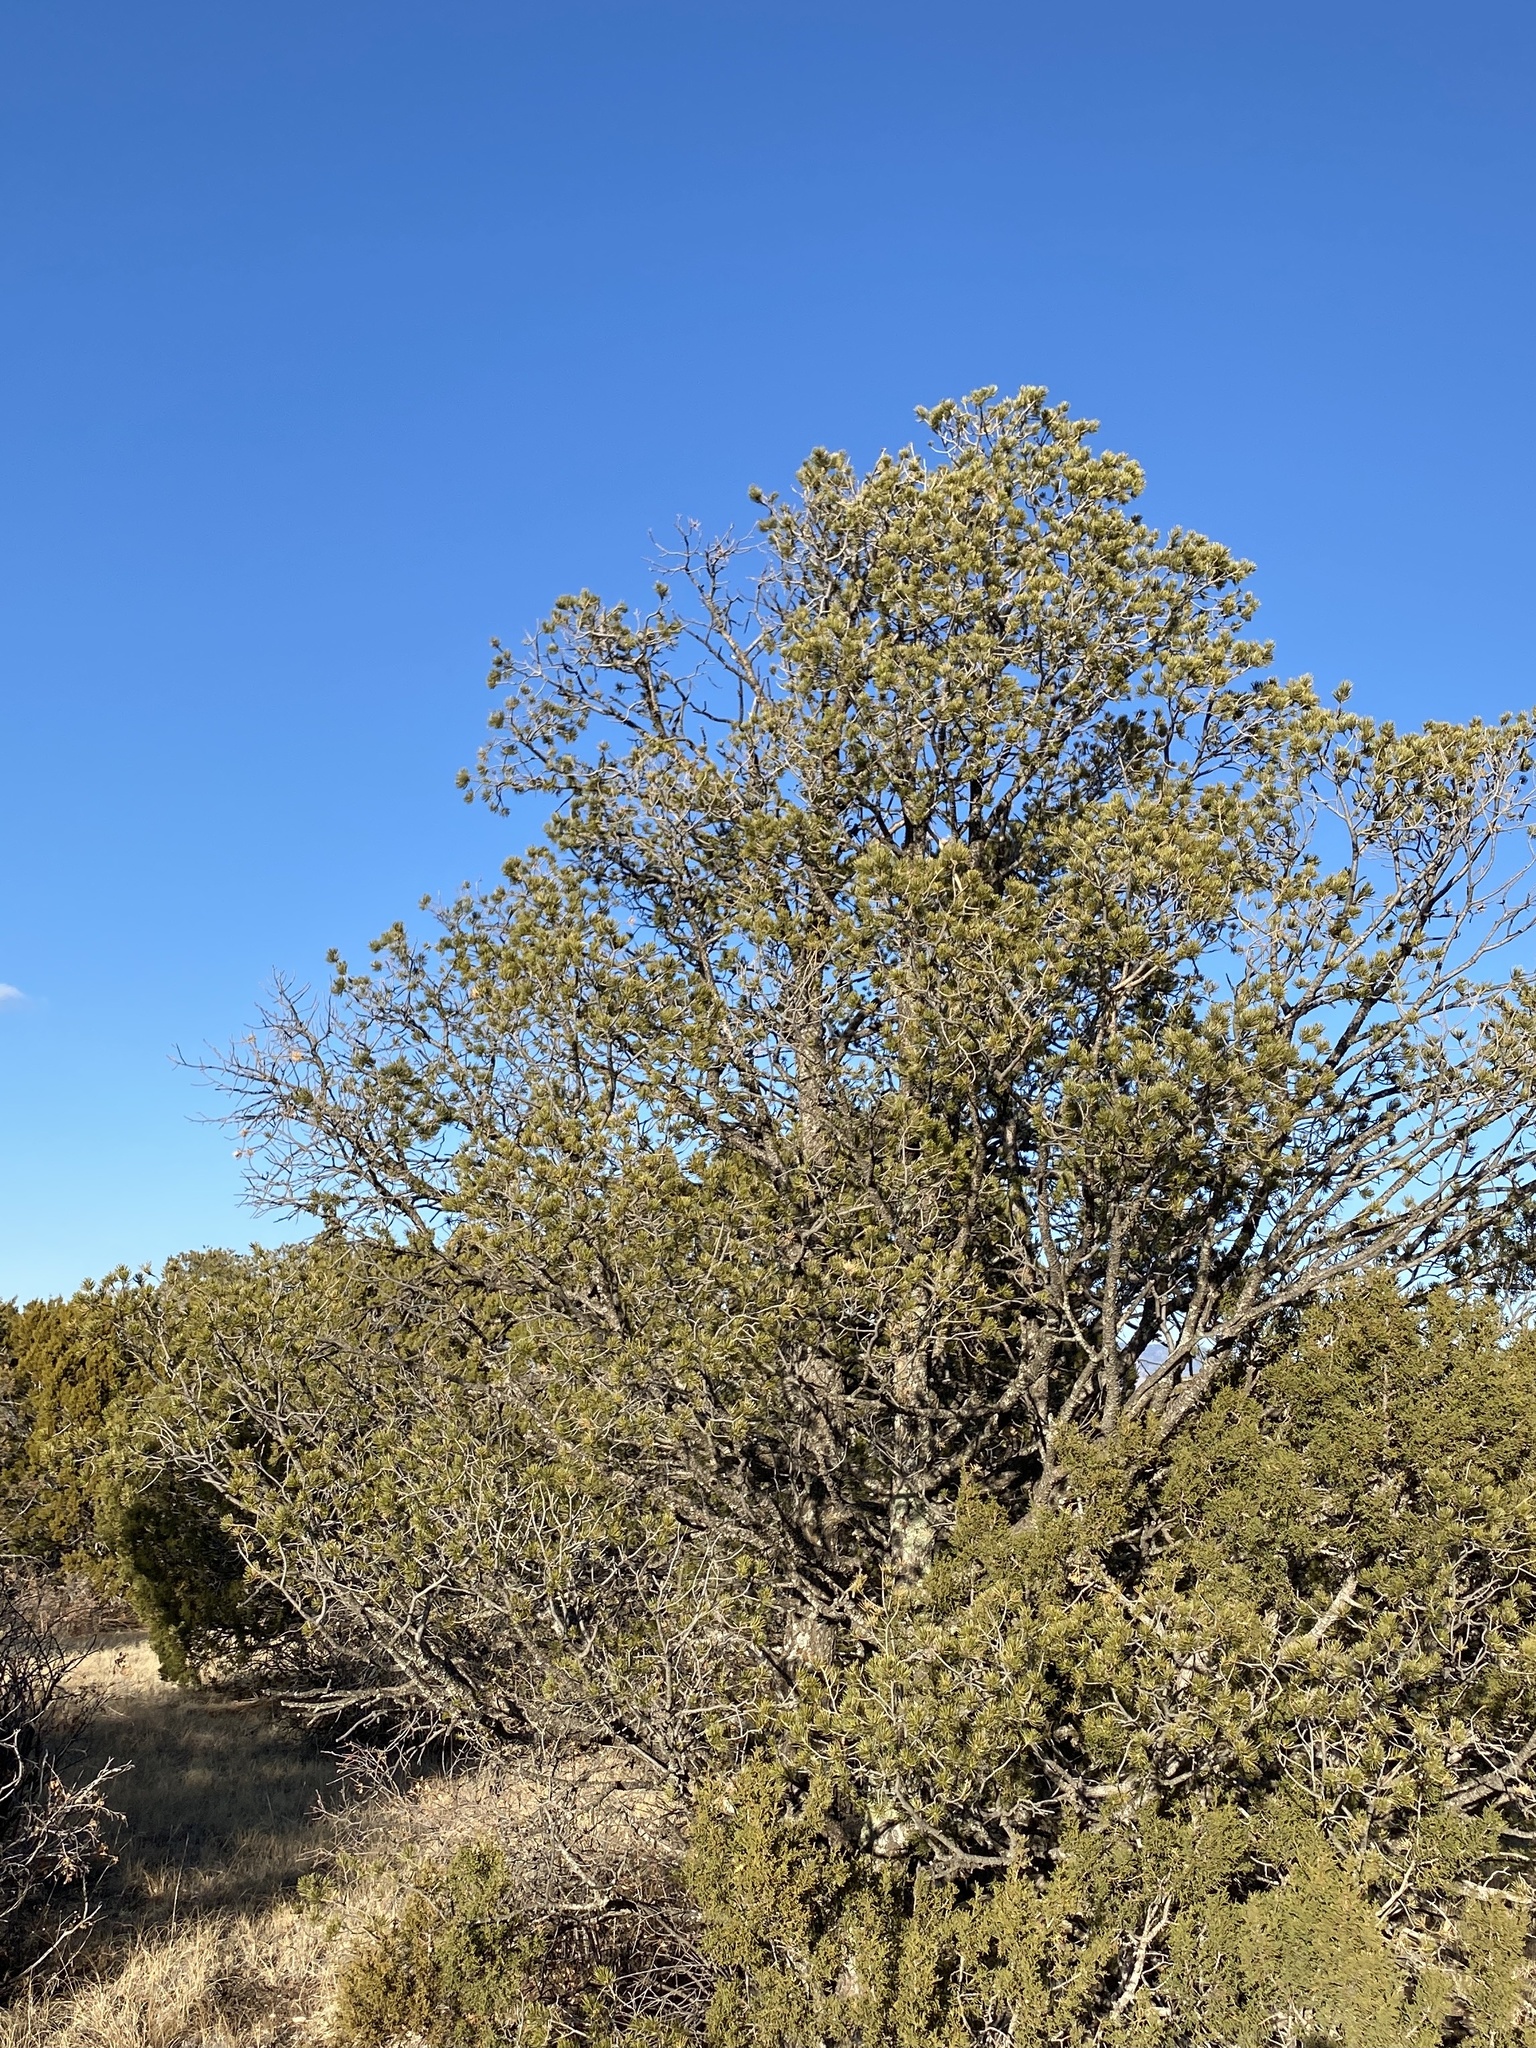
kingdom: Plantae
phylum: Tracheophyta
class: Pinopsida
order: Pinales
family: Pinaceae
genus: Pinus
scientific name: Pinus edulis
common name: Colorado pinyon
